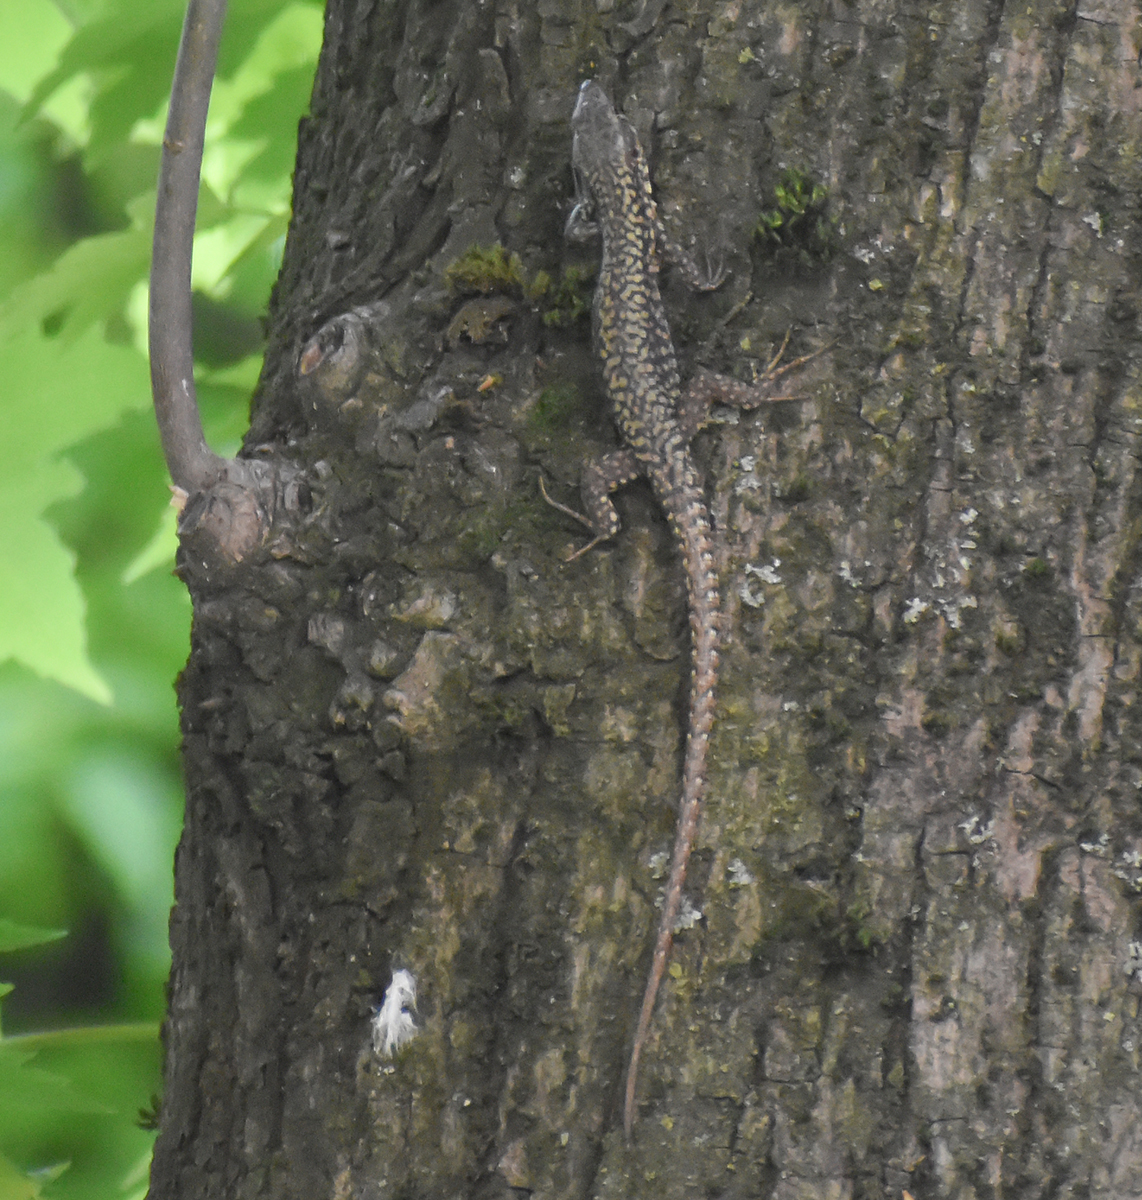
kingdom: Animalia
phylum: Chordata
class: Squamata
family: Lacertidae
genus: Podarcis
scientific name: Podarcis muralis
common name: Common wall lizard
